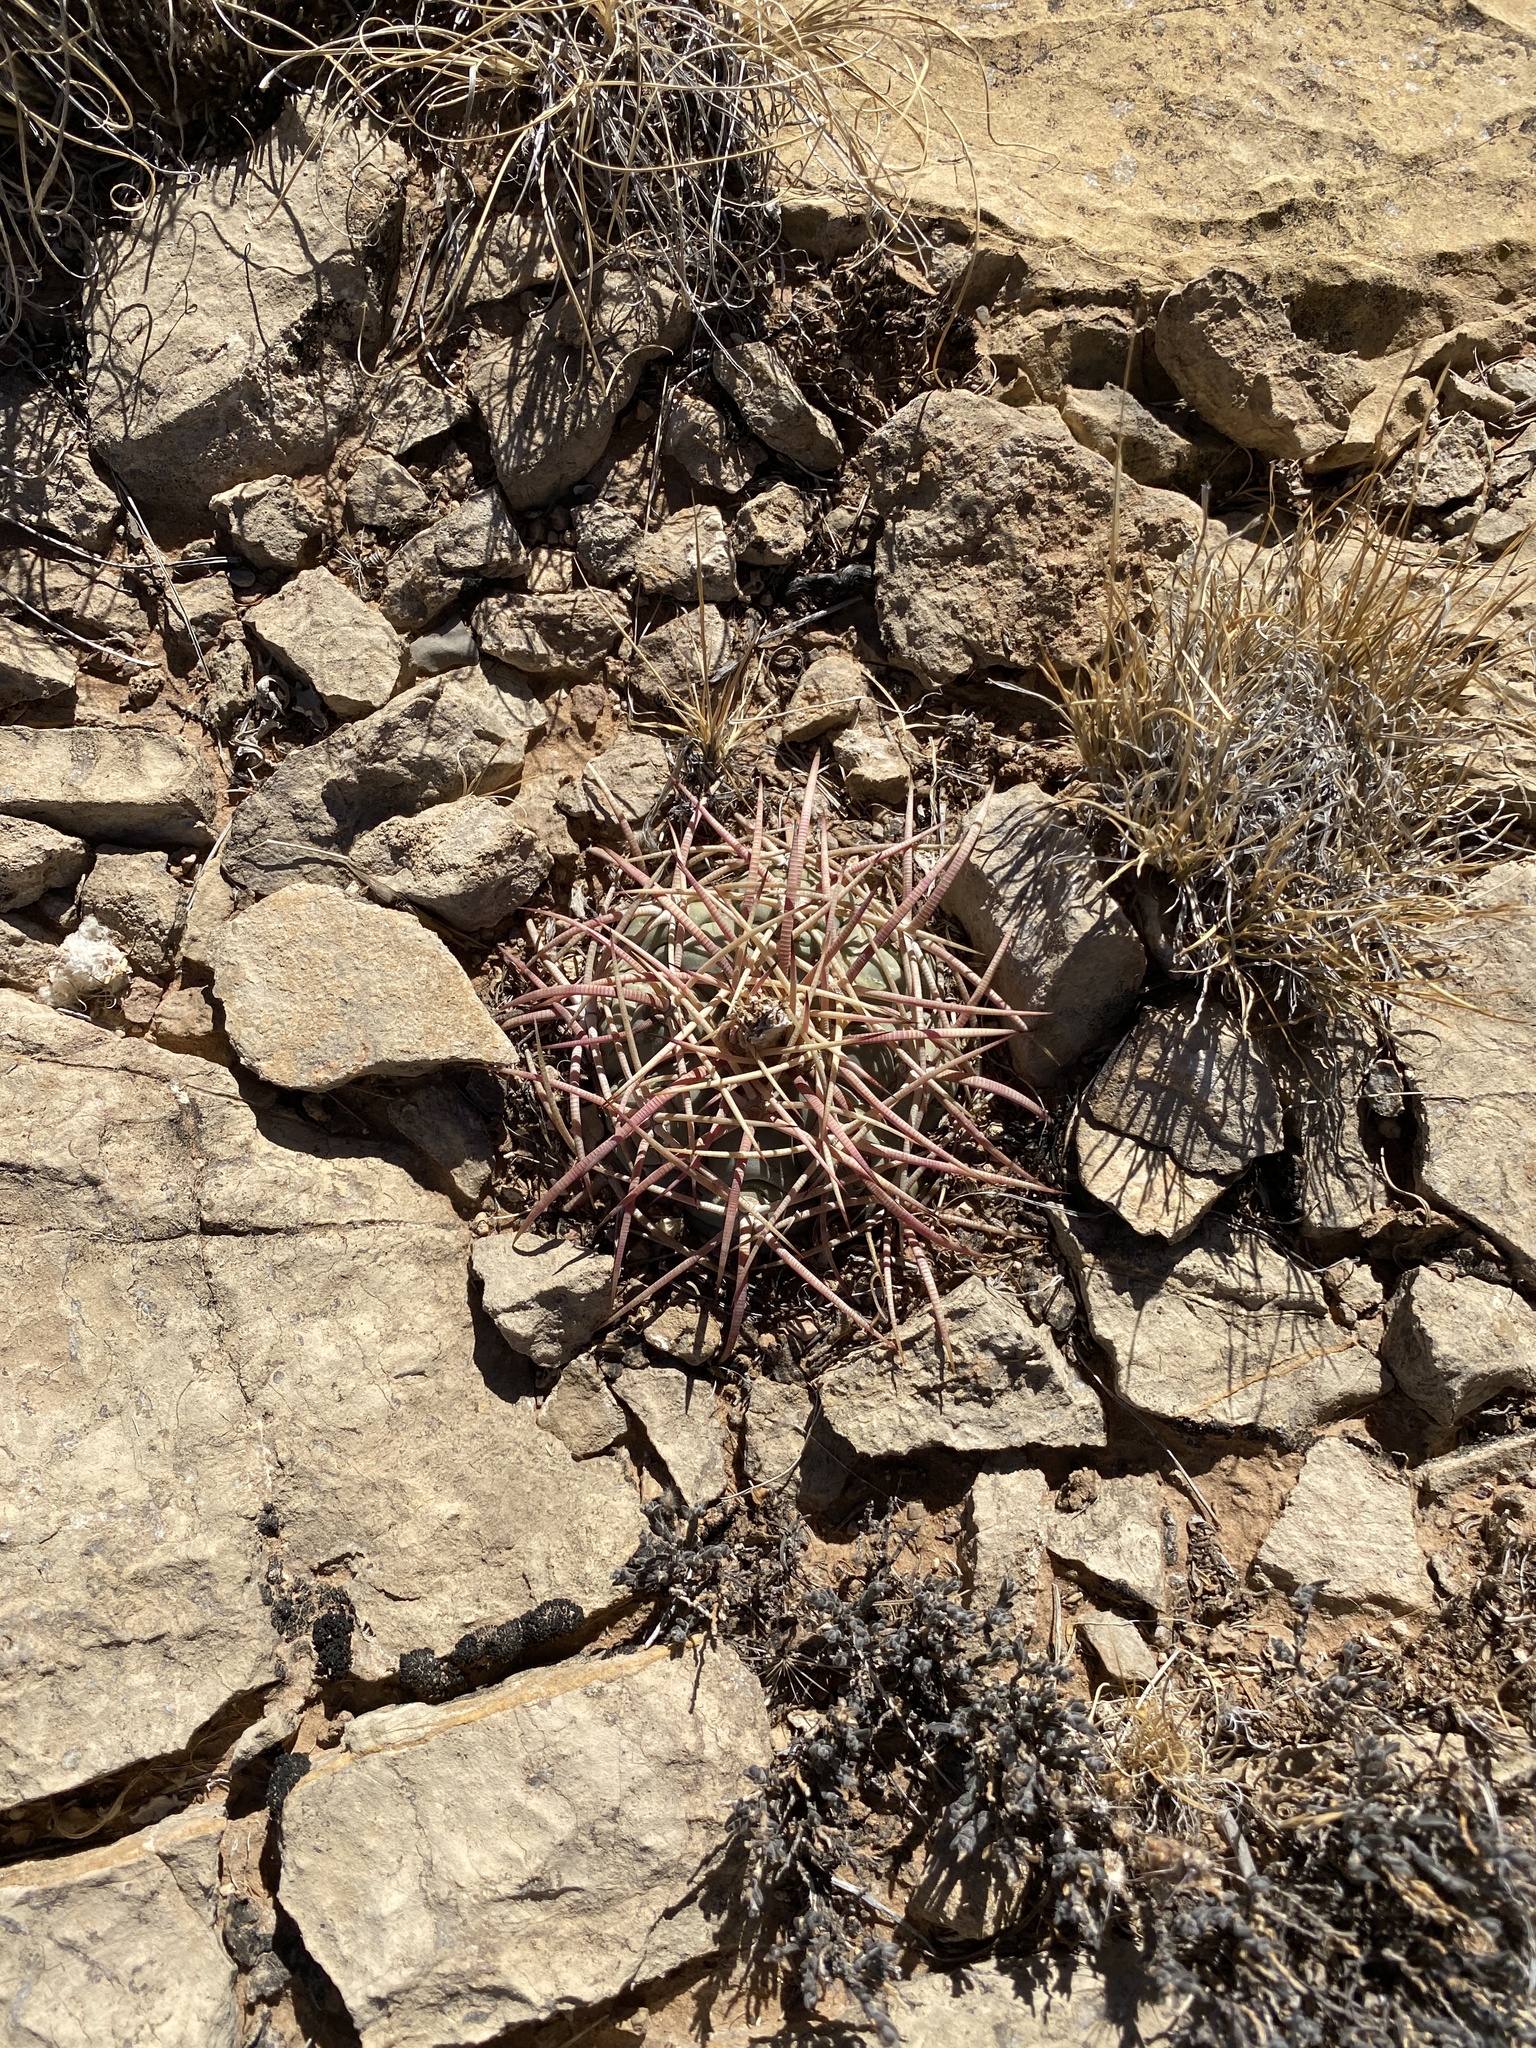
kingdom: Plantae
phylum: Tracheophyta
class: Magnoliopsida
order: Caryophyllales
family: Cactaceae
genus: Echinocactus
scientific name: Echinocactus horizonthalonius
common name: Devilshead
